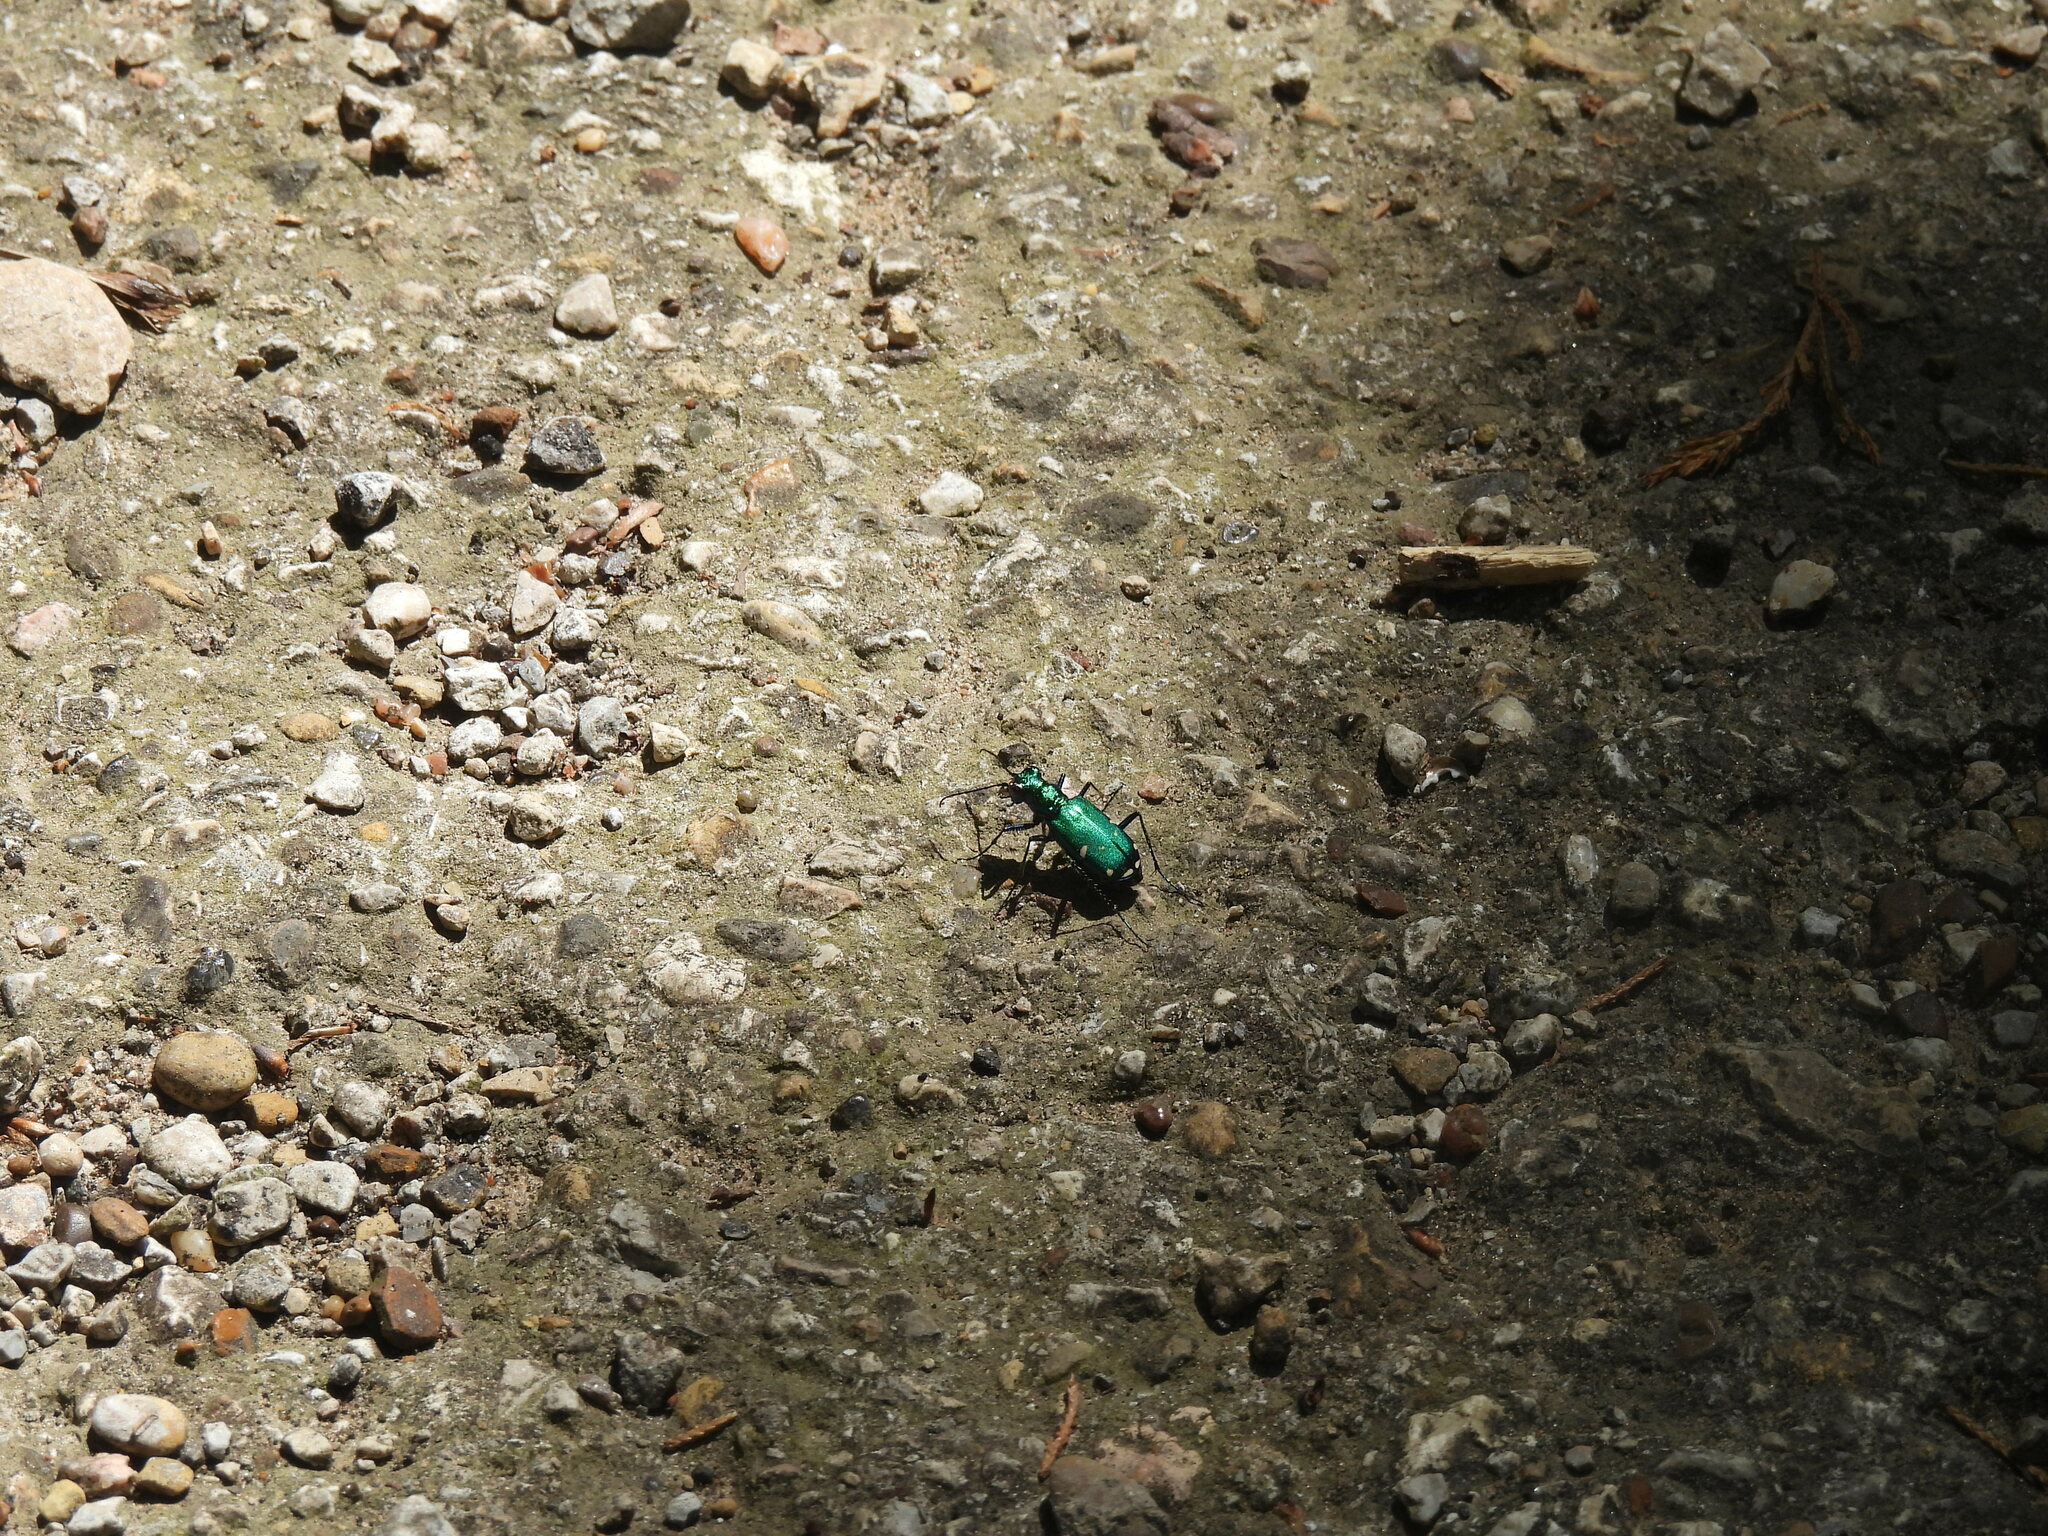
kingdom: Animalia
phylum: Arthropoda
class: Insecta
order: Coleoptera
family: Carabidae
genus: Cicindela
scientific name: Cicindela sexguttata
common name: Six-spotted tiger beetle
